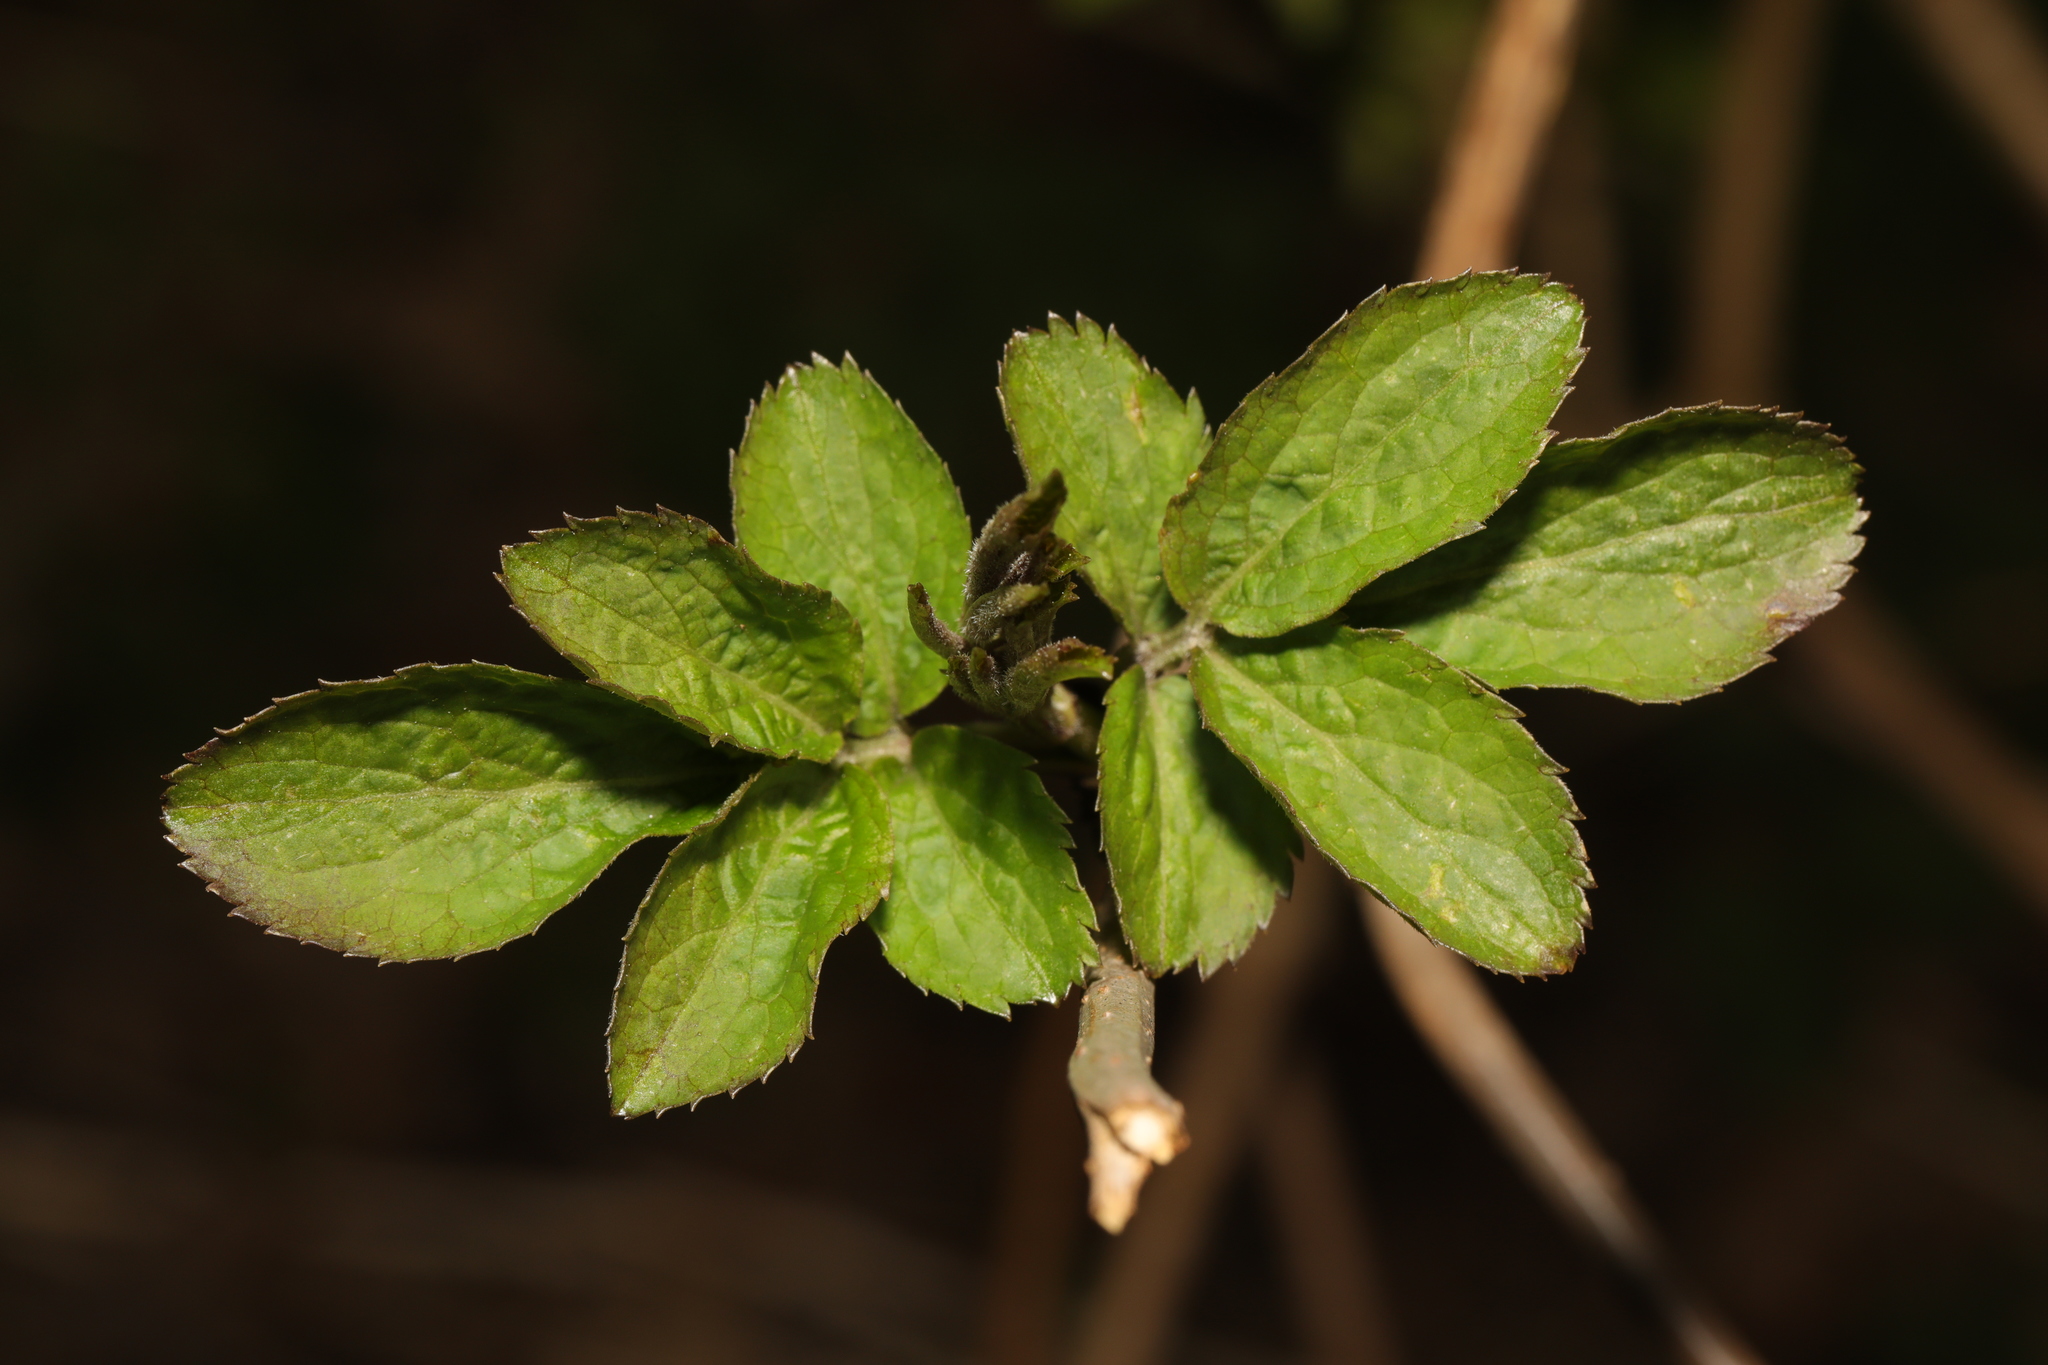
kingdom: Plantae
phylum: Tracheophyta
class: Magnoliopsida
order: Dipsacales
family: Viburnaceae
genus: Sambucus
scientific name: Sambucus nigra
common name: Elder
